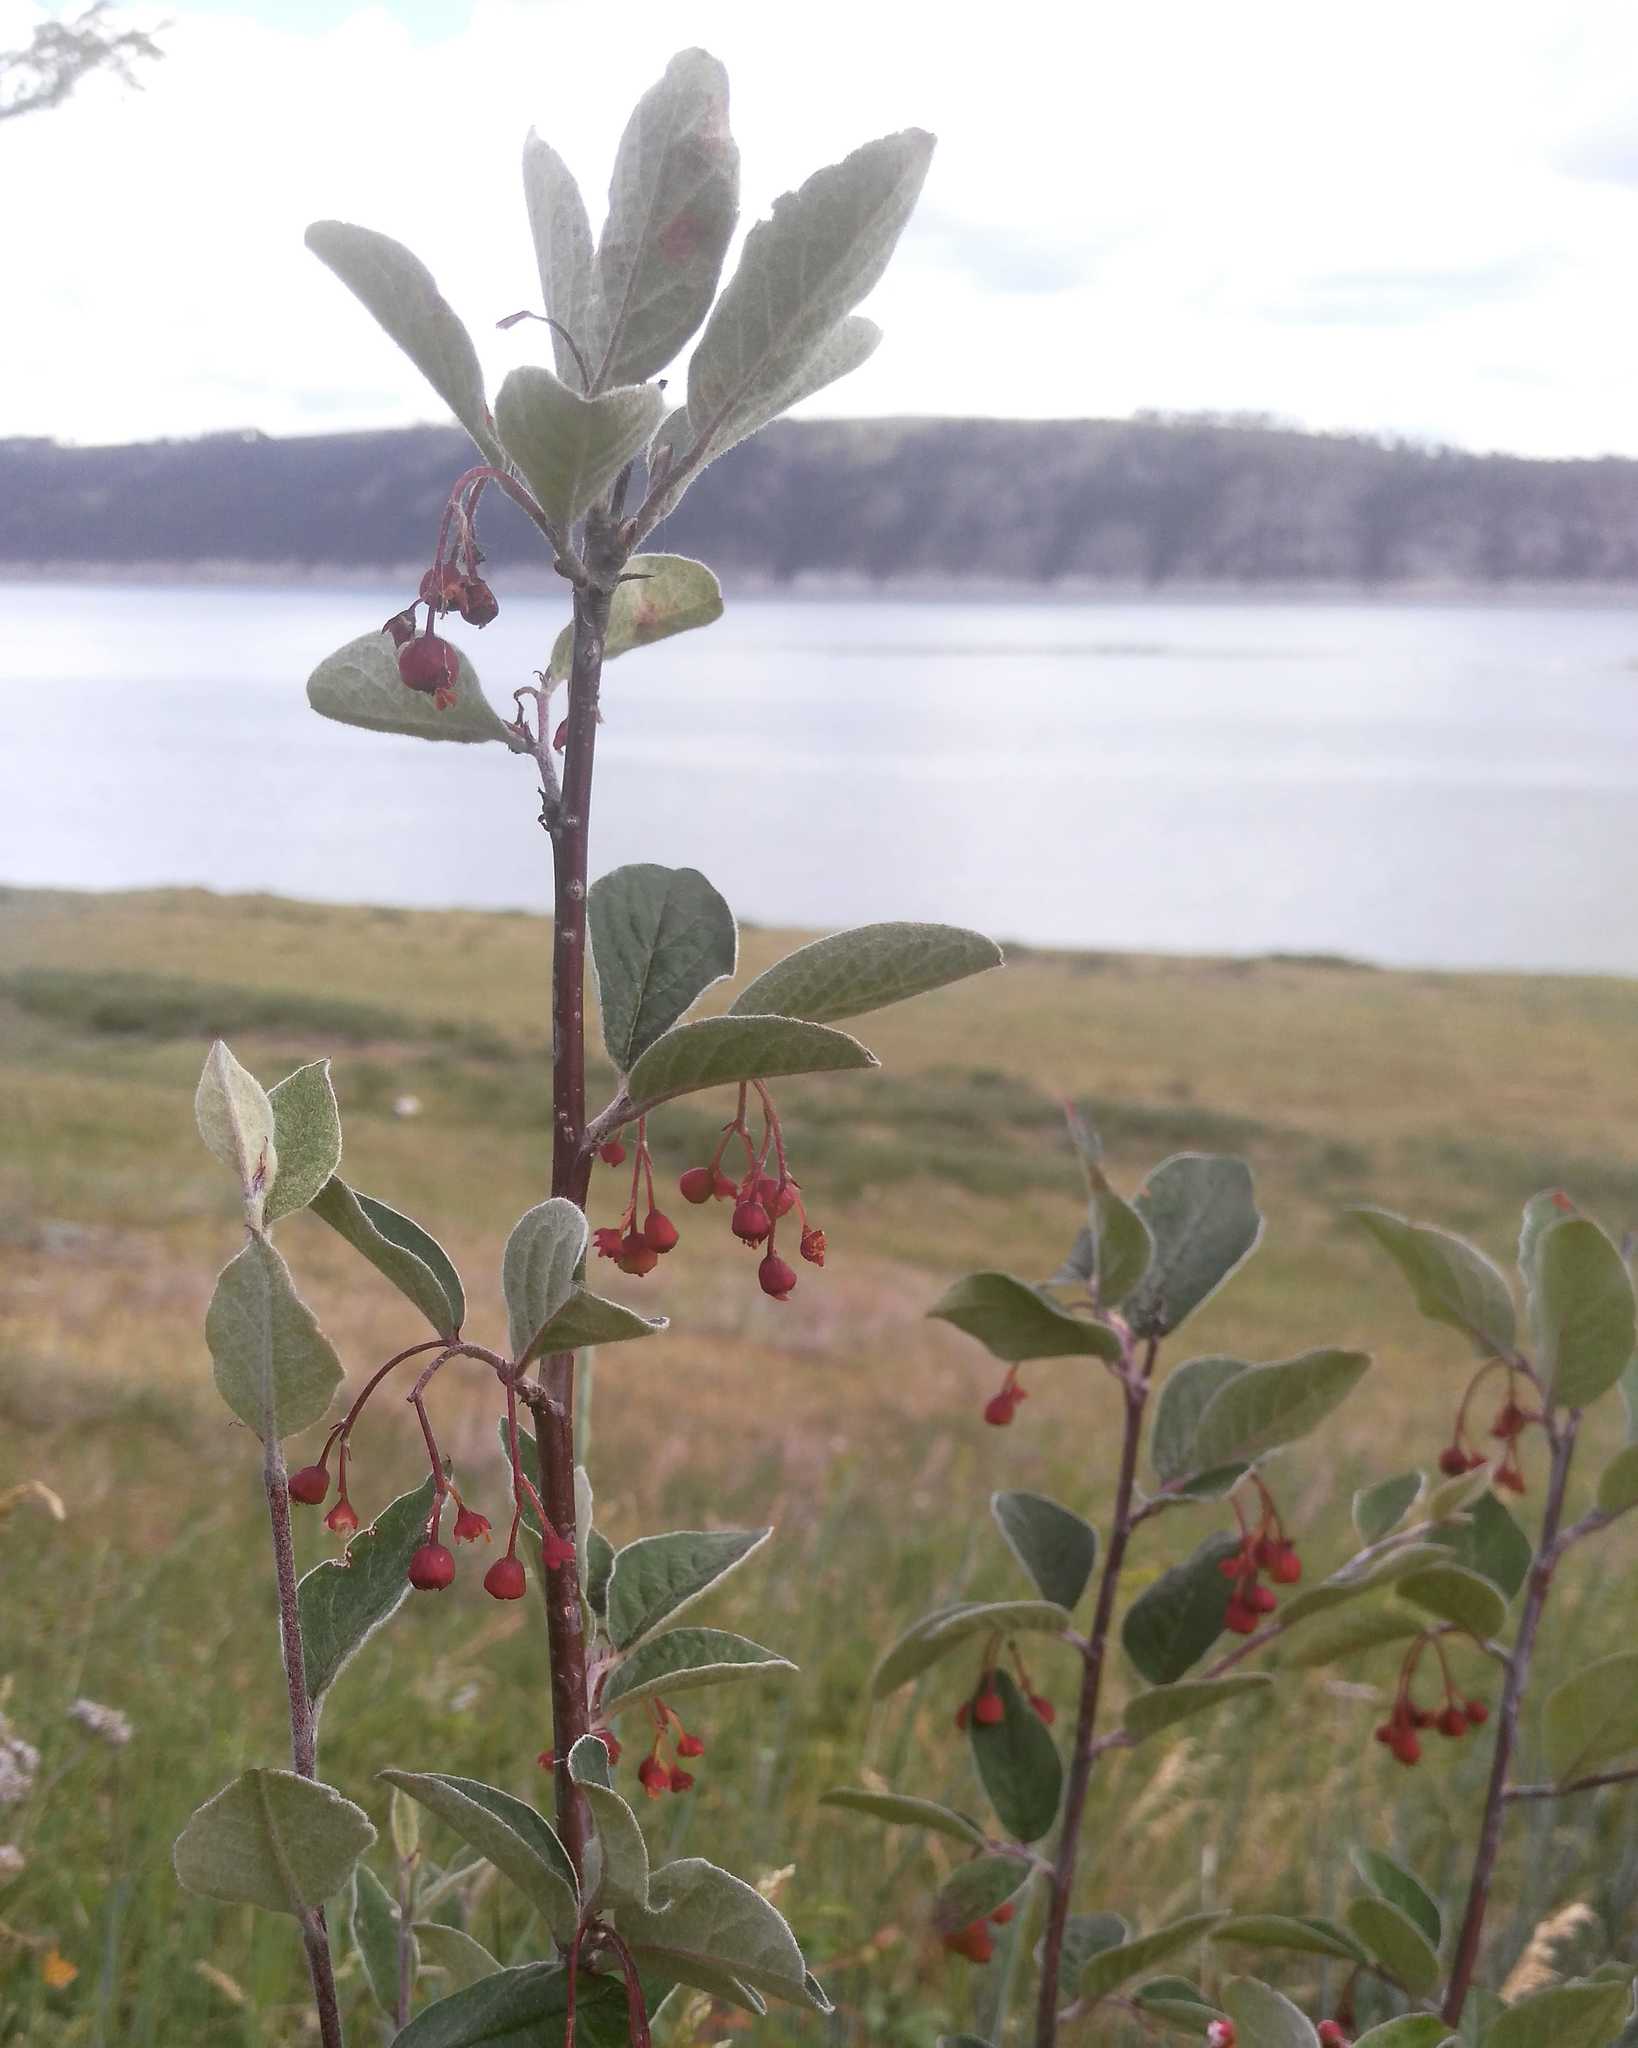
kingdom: Plantae
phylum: Tracheophyta
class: Magnoliopsida
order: Rosales
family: Rosaceae
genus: Cotoneaster
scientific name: Cotoneaster melanocarpus
